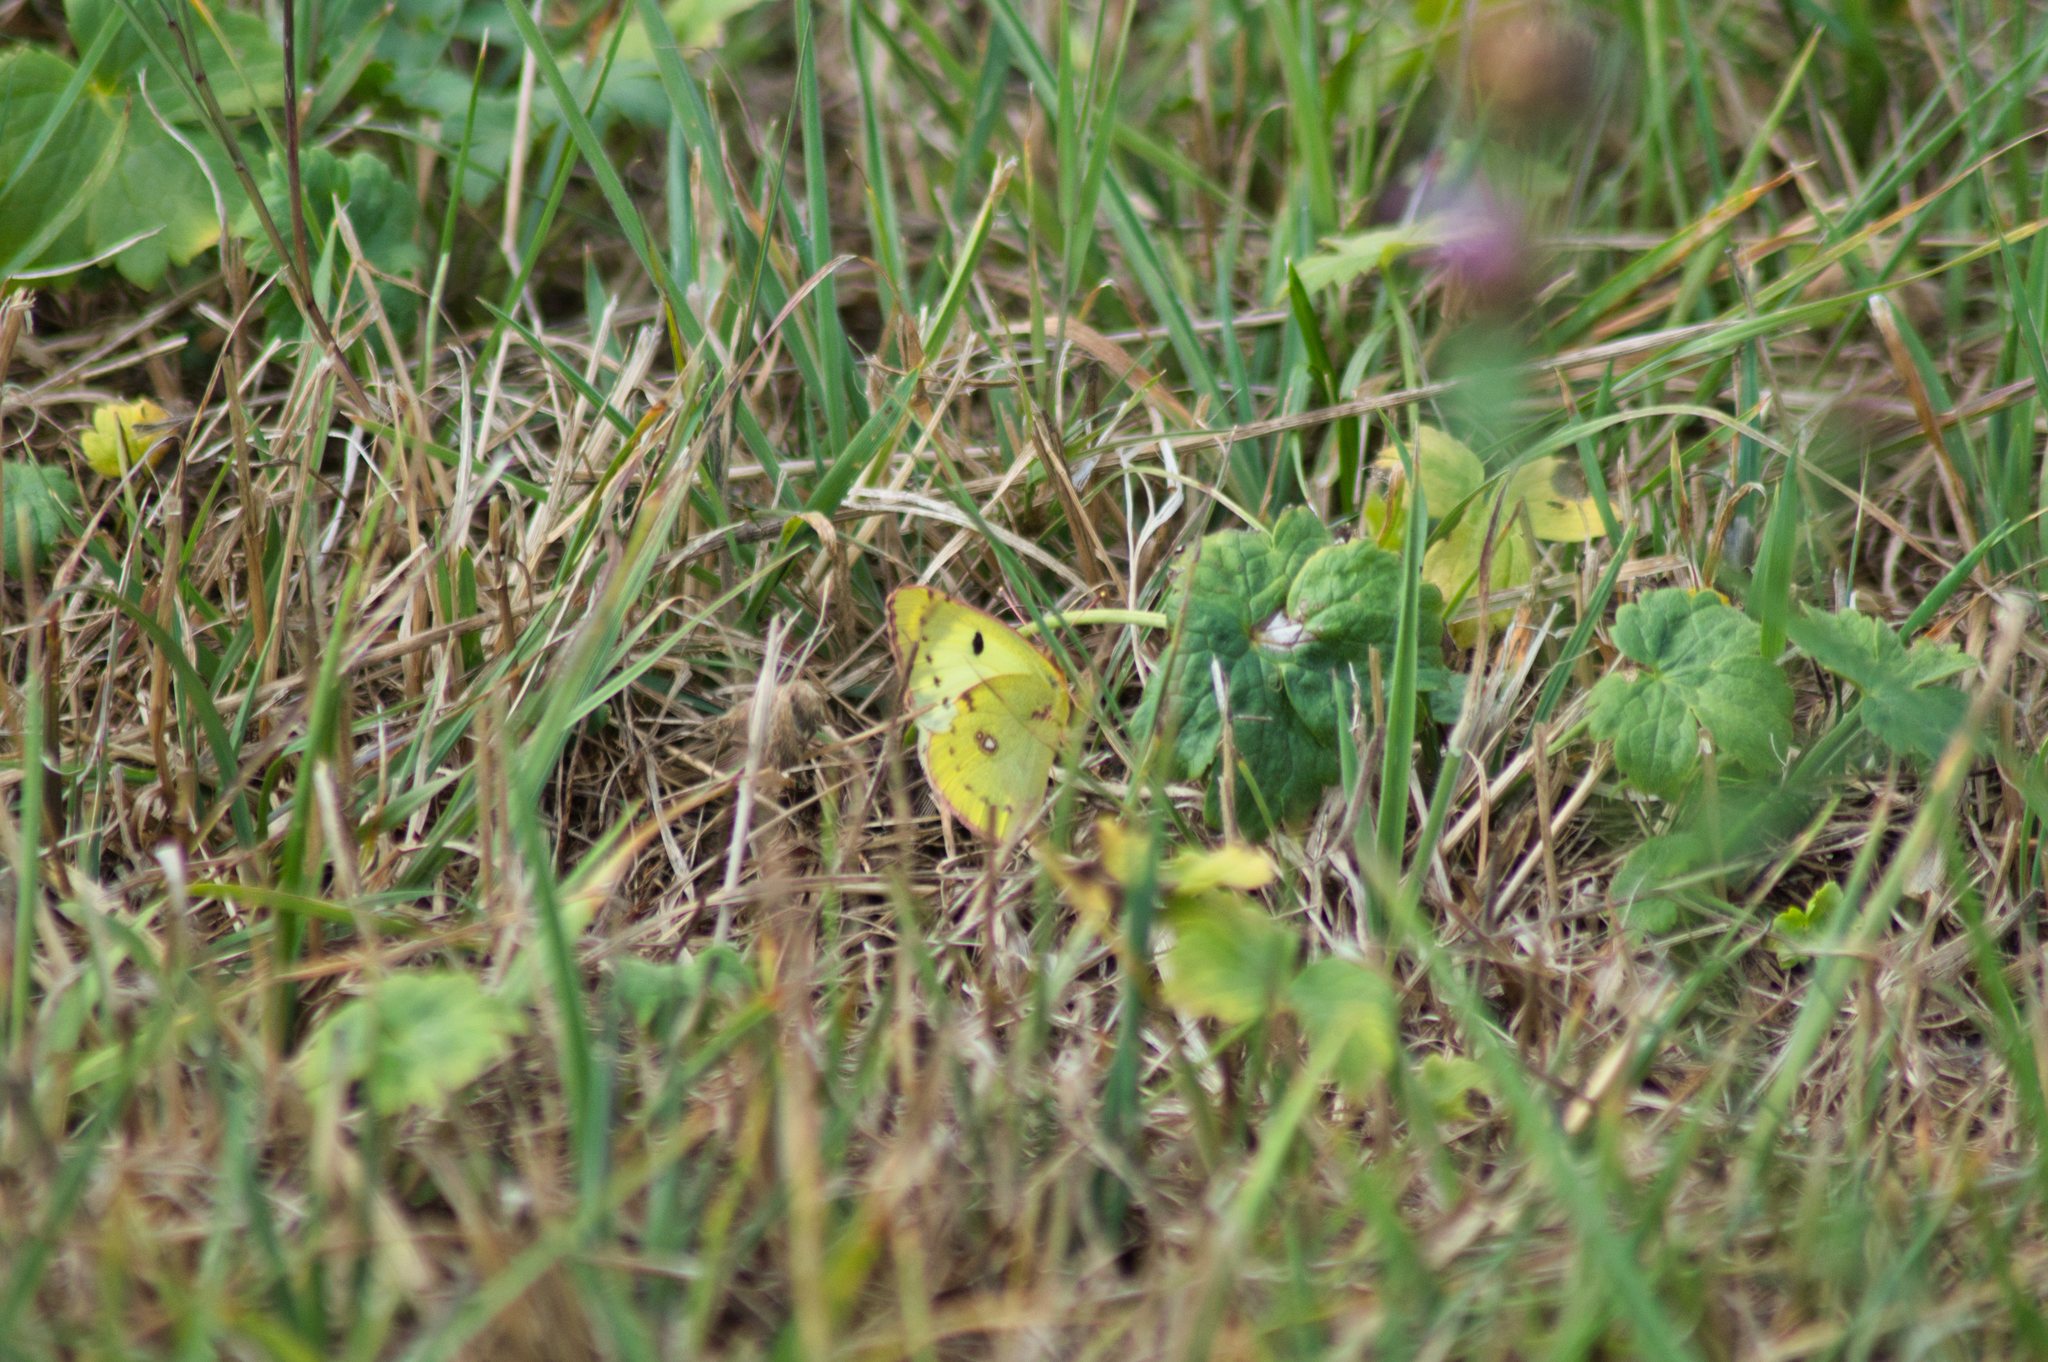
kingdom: Animalia
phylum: Arthropoda
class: Insecta
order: Lepidoptera
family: Pieridae
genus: Colias
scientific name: Colias croceus
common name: Clouded yellow
